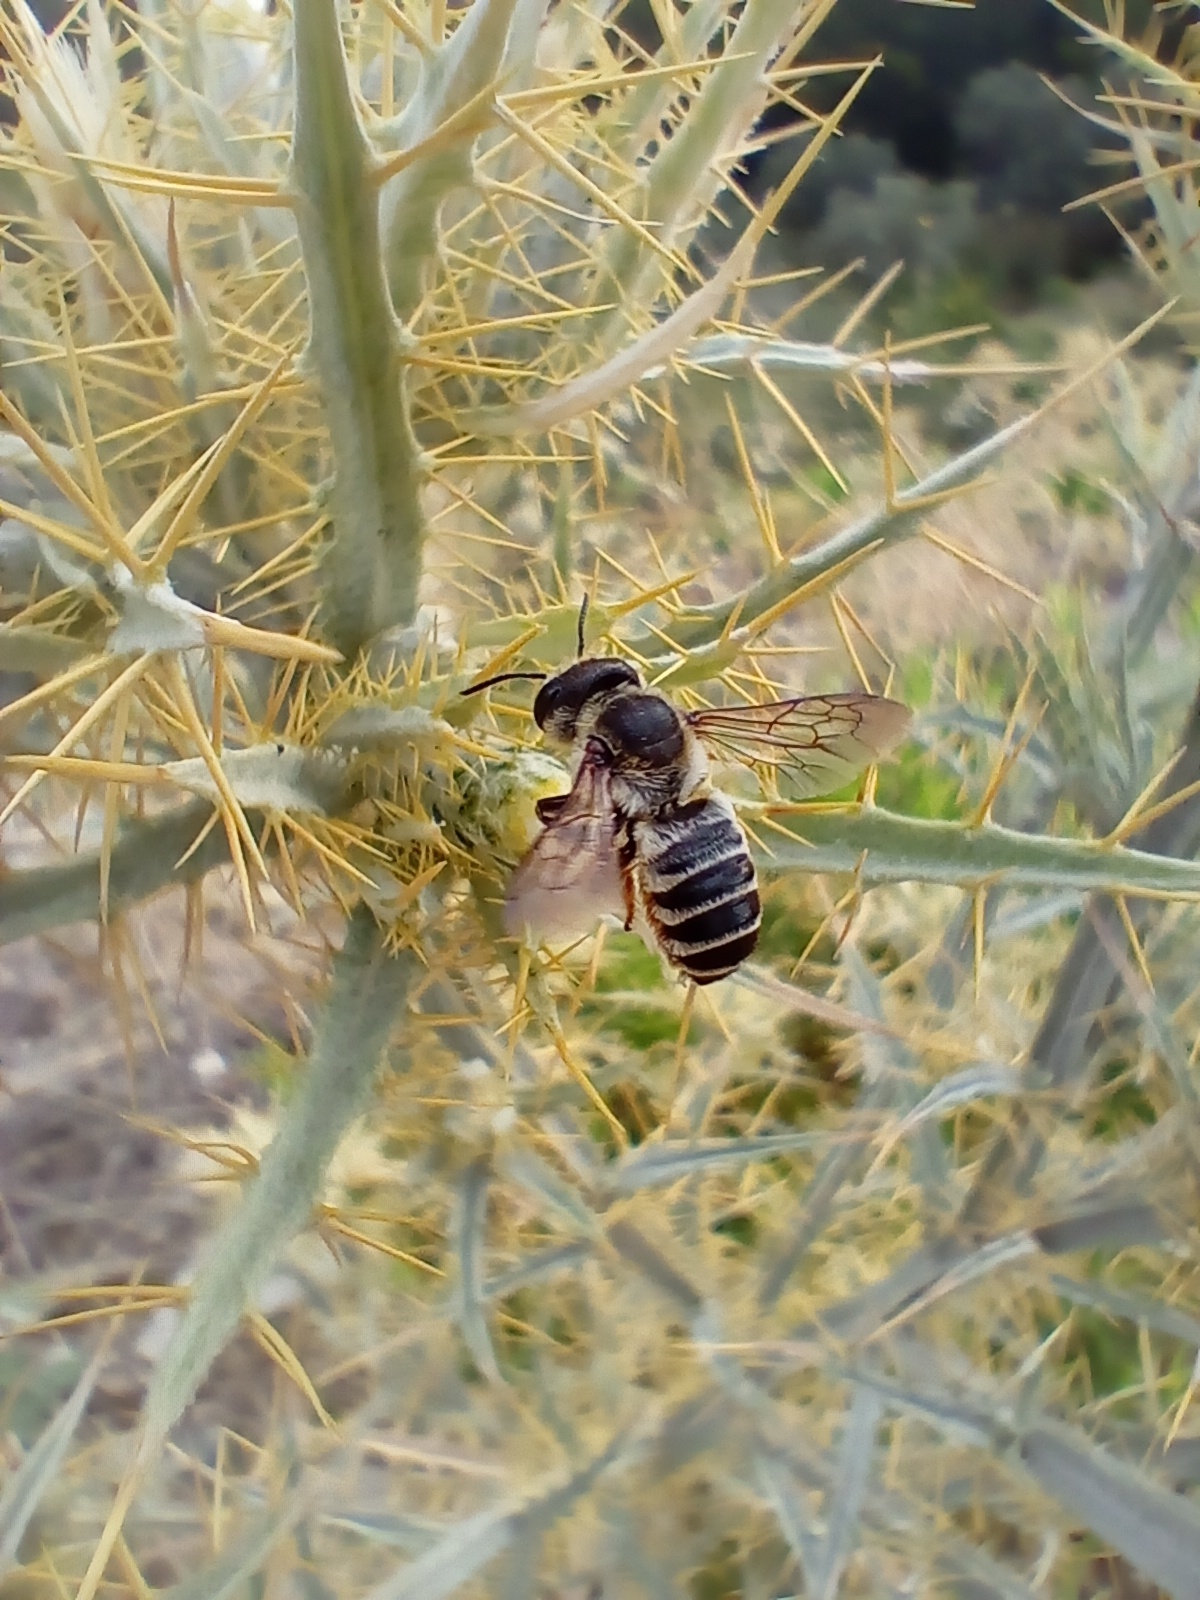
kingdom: Animalia
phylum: Arthropoda
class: Insecta
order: Hymenoptera
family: Megachilidae
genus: Megachile
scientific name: Megachile albisecta
